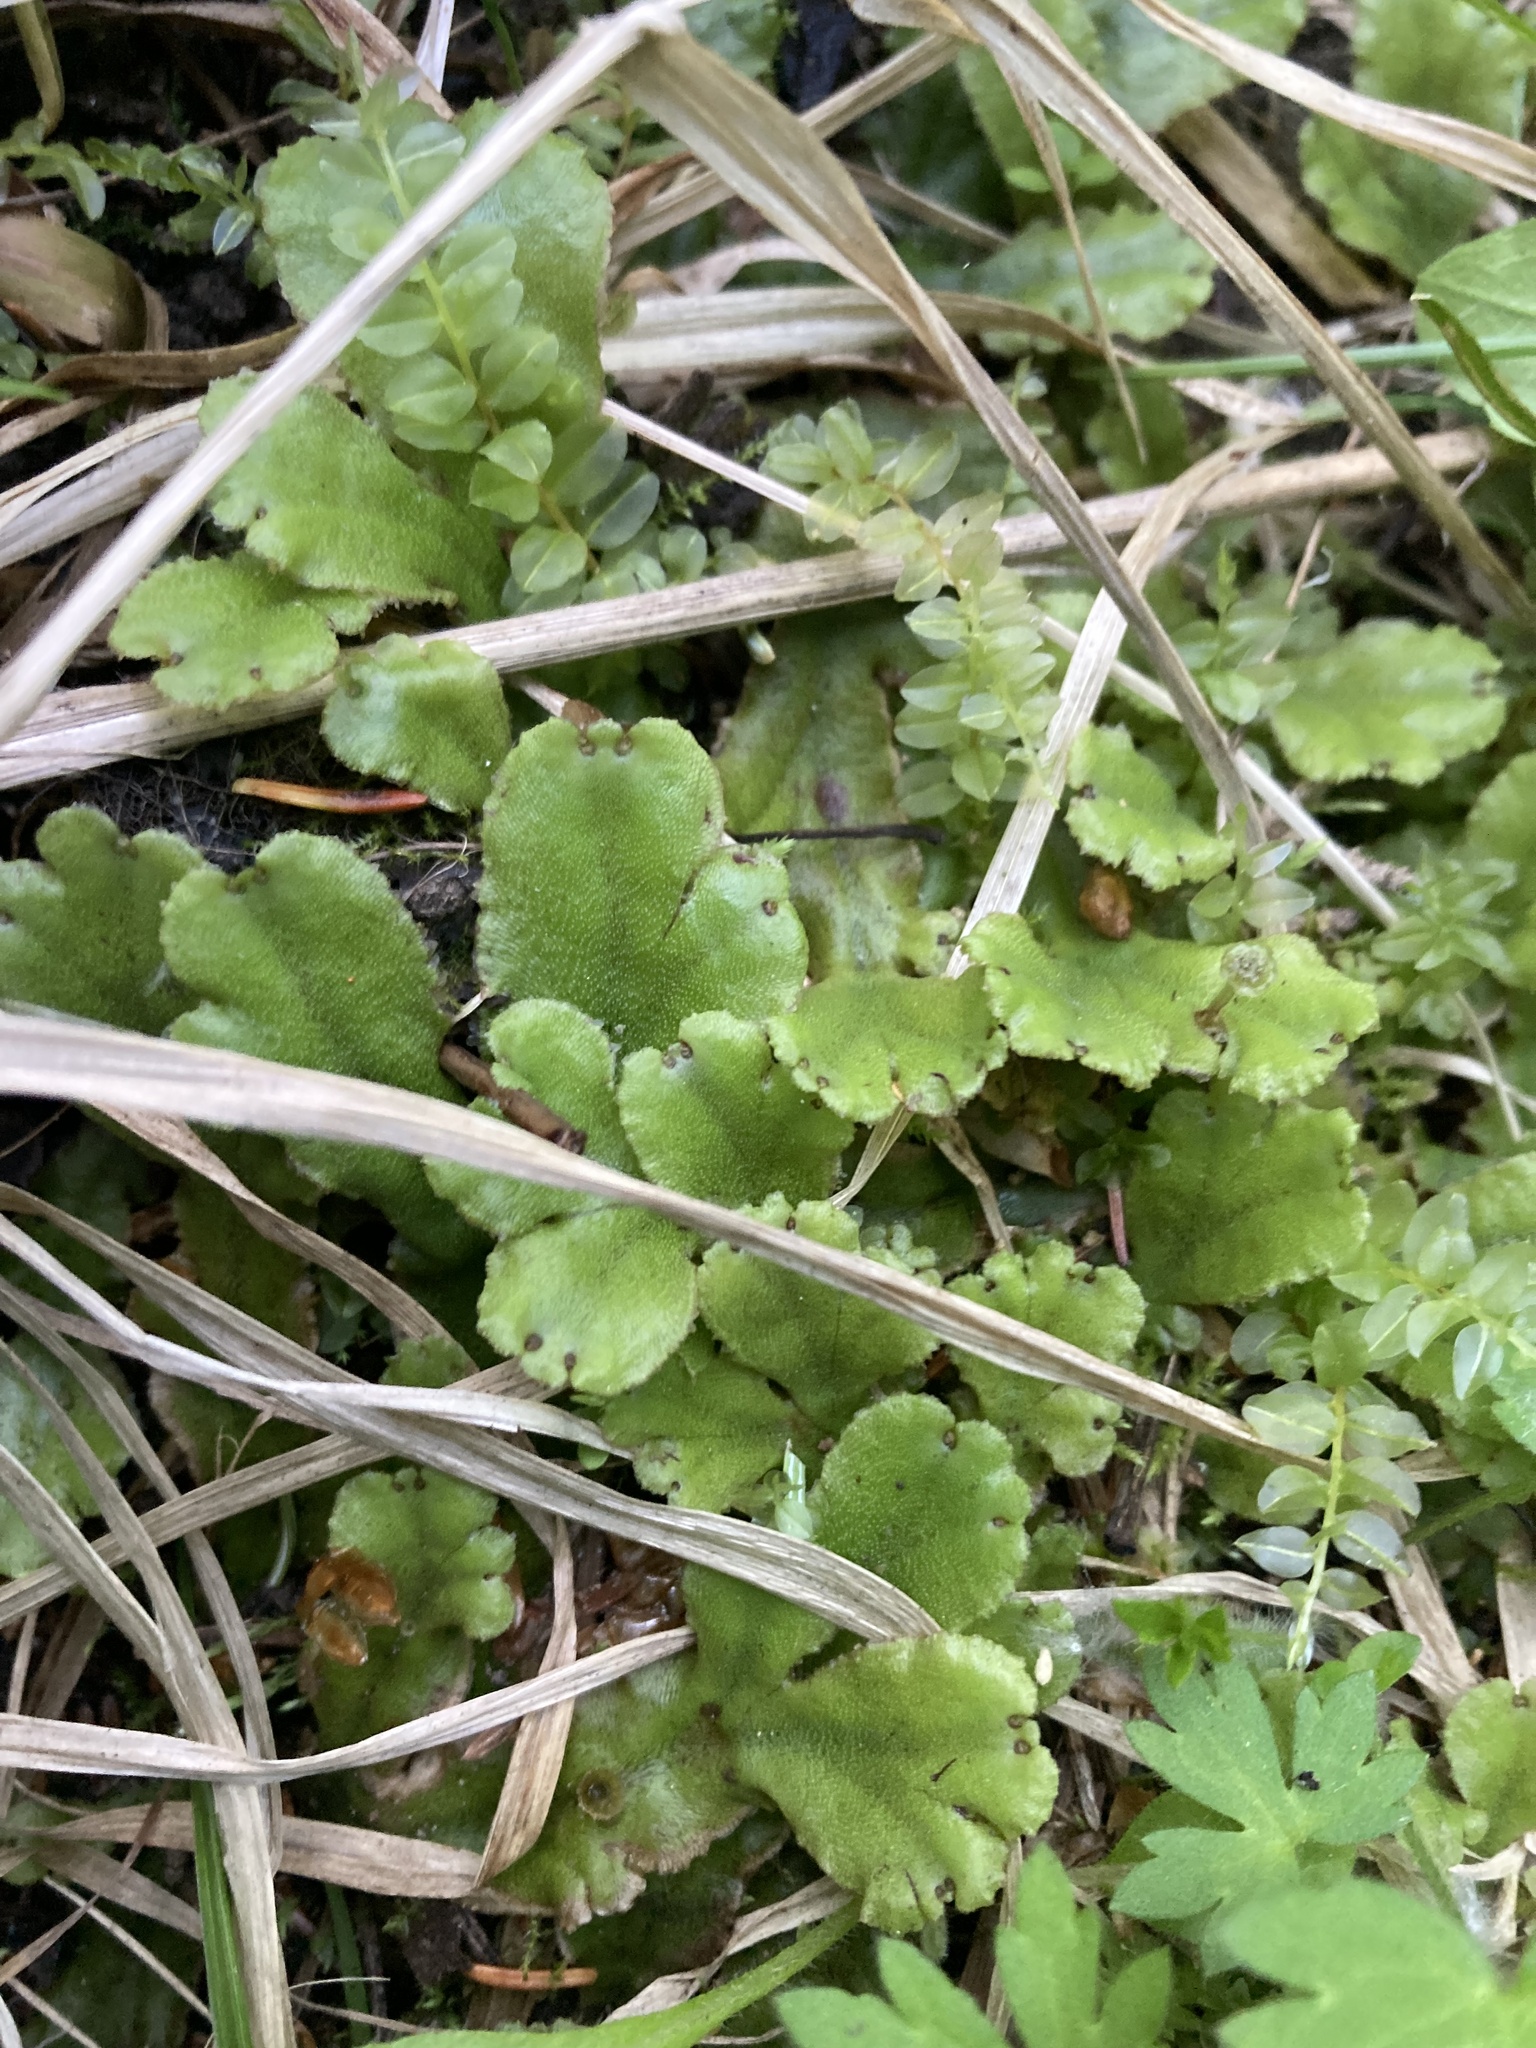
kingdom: Plantae
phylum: Marchantiophyta
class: Marchantiopsida
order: Marchantiales
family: Marchantiaceae
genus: Marchantia
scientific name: Marchantia polymorpha
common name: Common liverwort
